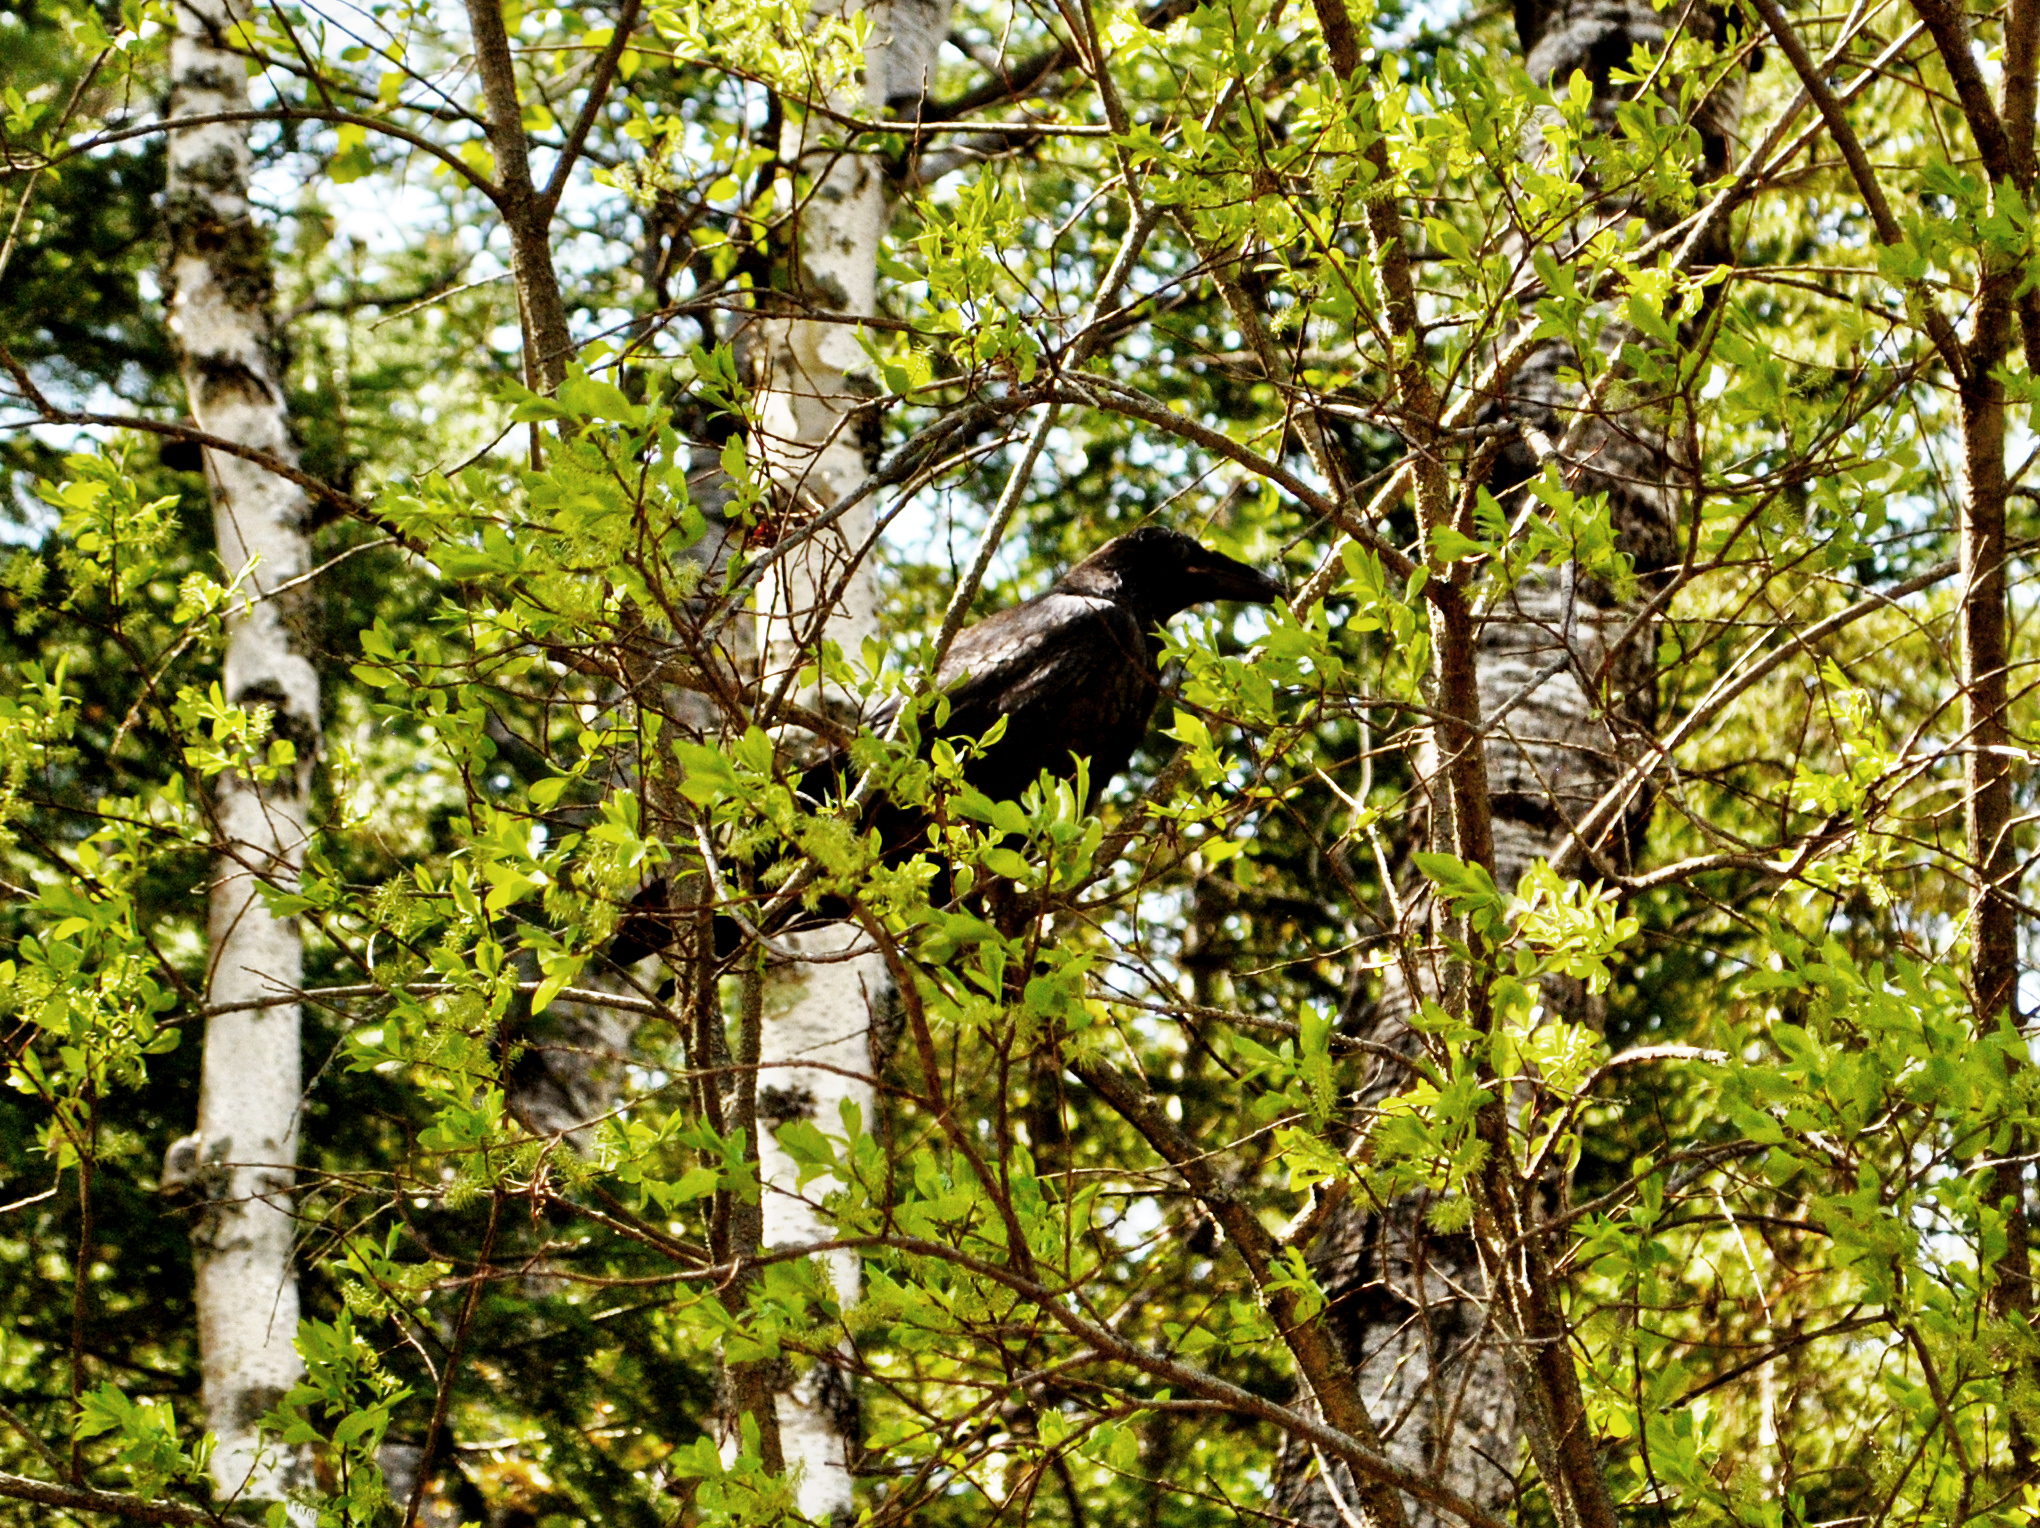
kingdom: Animalia
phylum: Chordata
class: Aves
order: Passeriformes
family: Corvidae
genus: Corvus
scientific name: Corvus corax
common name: Common raven
